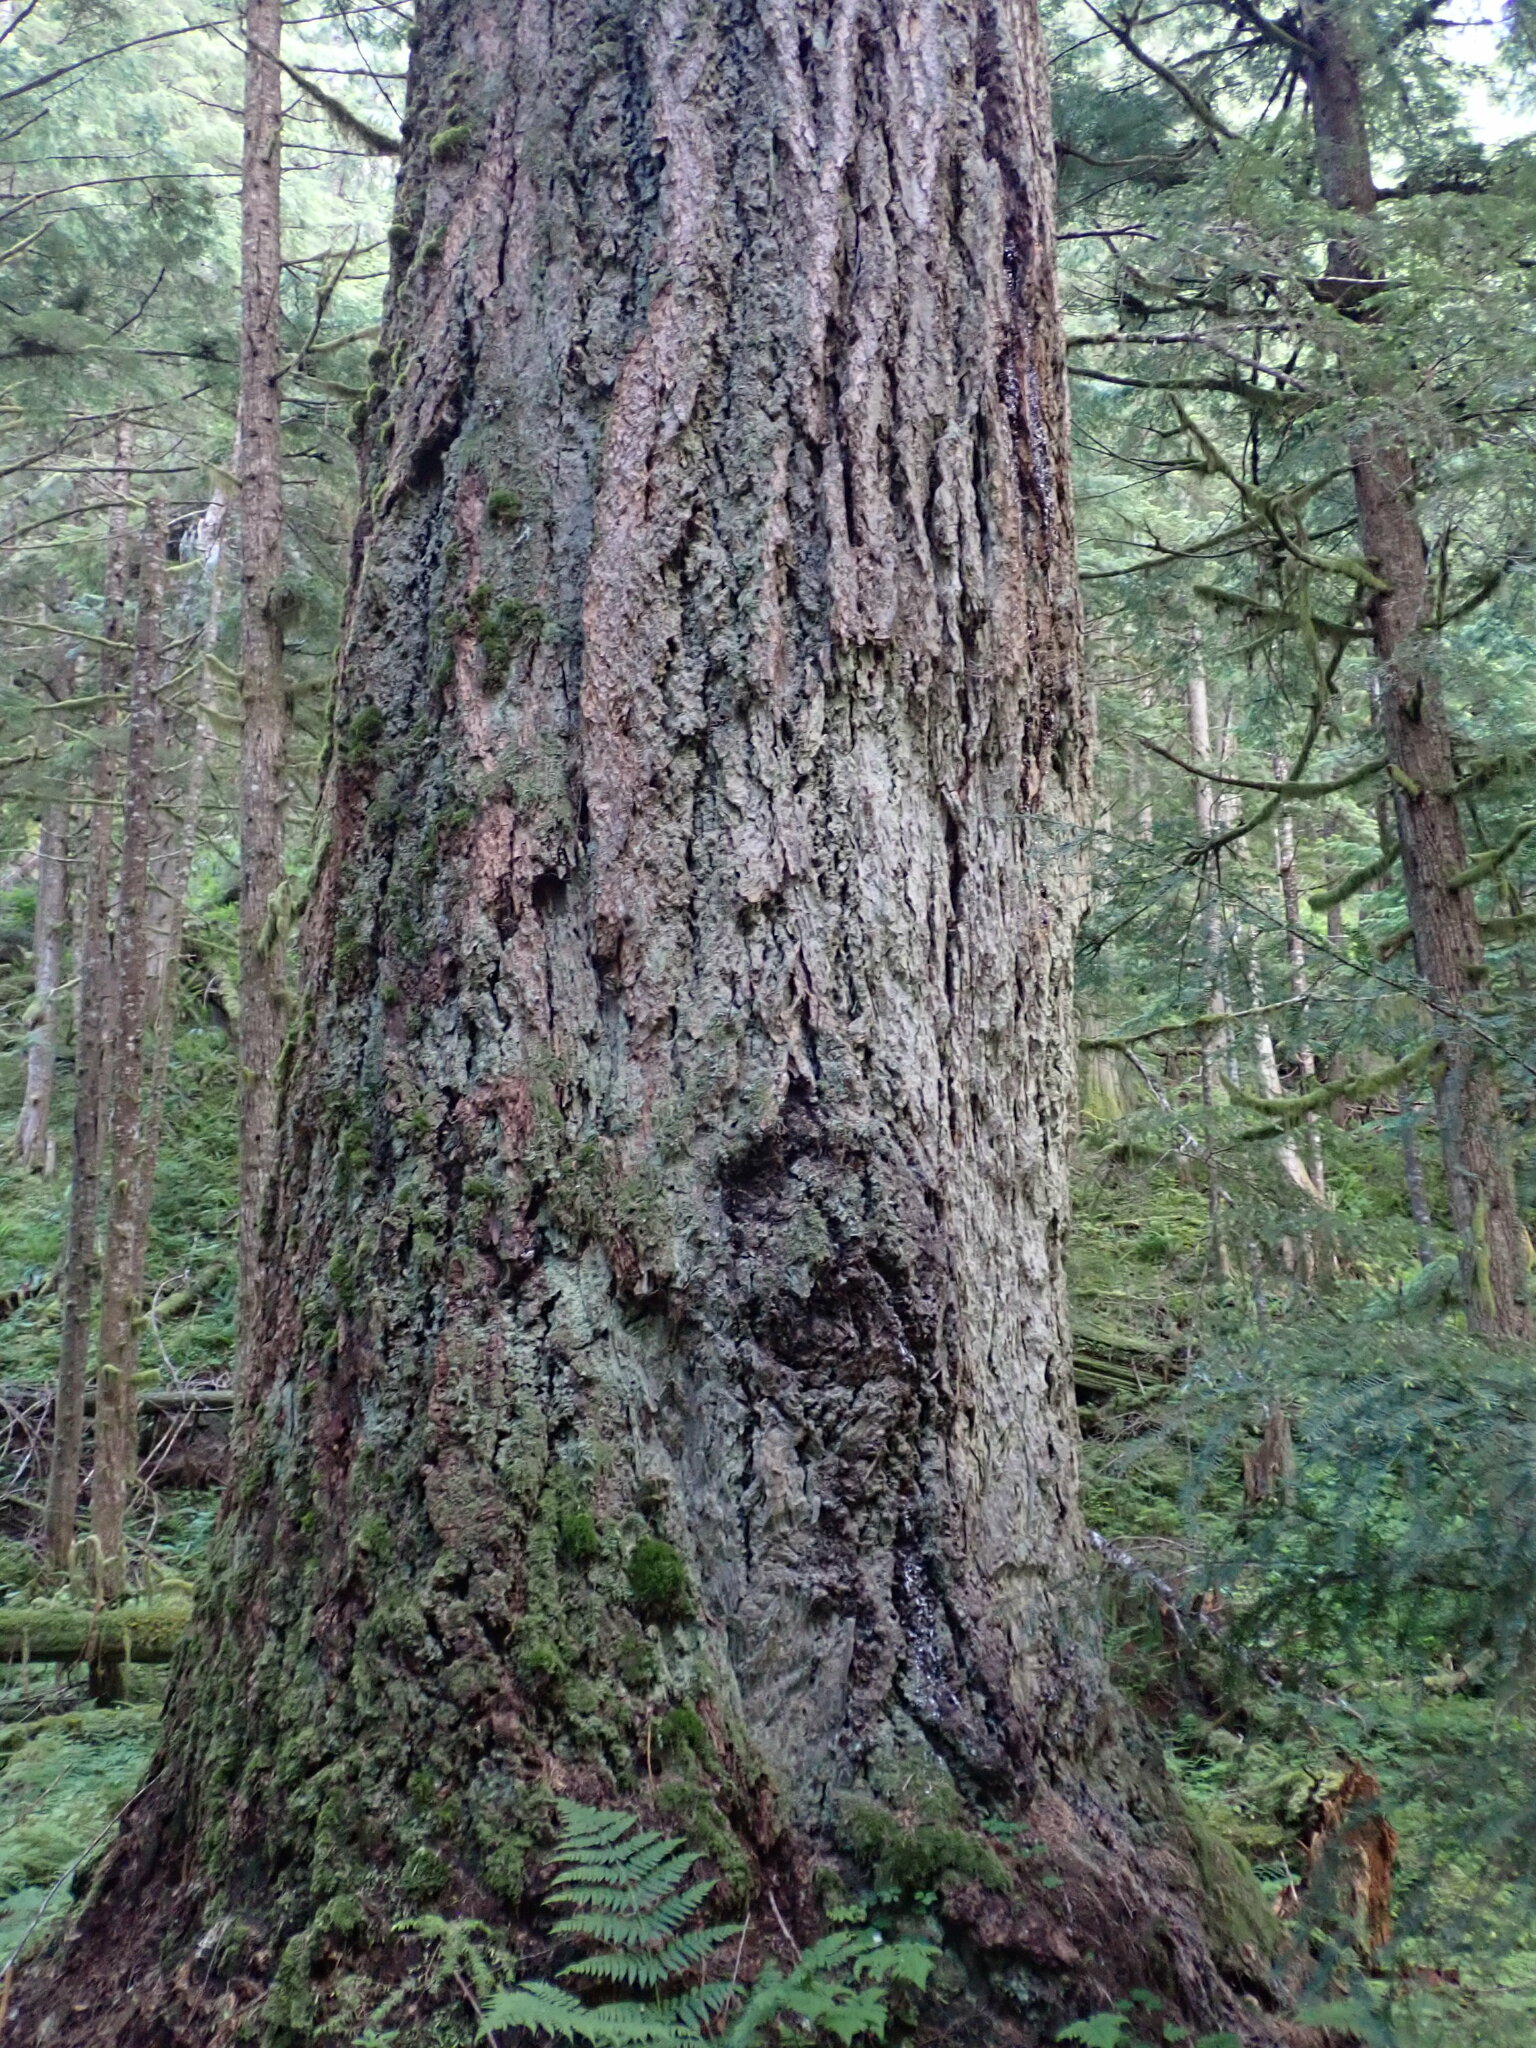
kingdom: Plantae
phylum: Tracheophyta
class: Pinopsida
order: Pinales
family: Pinaceae
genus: Pseudotsuga
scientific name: Pseudotsuga menziesii
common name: Douglas fir
